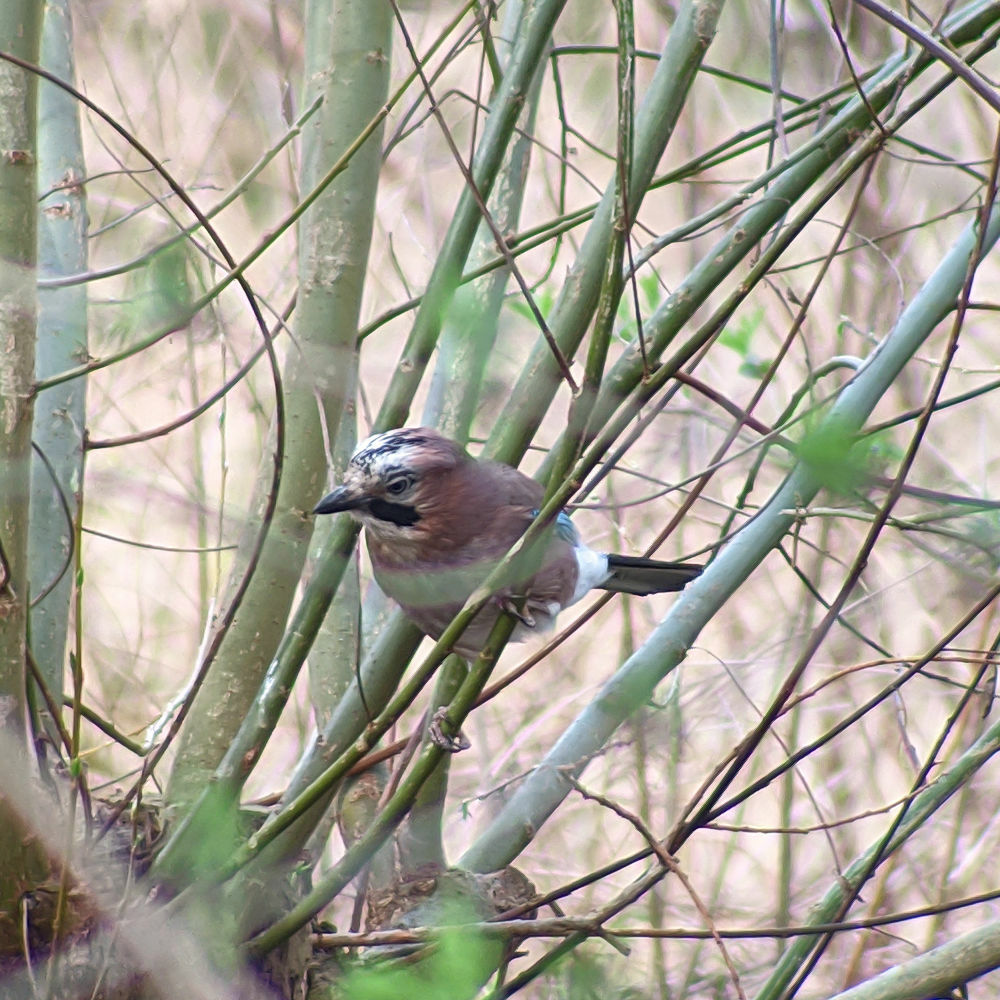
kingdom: Animalia
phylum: Chordata
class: Aves
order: Passeriformes
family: Corvidae
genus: Garrulus
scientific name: Garrulus glandarius
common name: Eurasian jay
